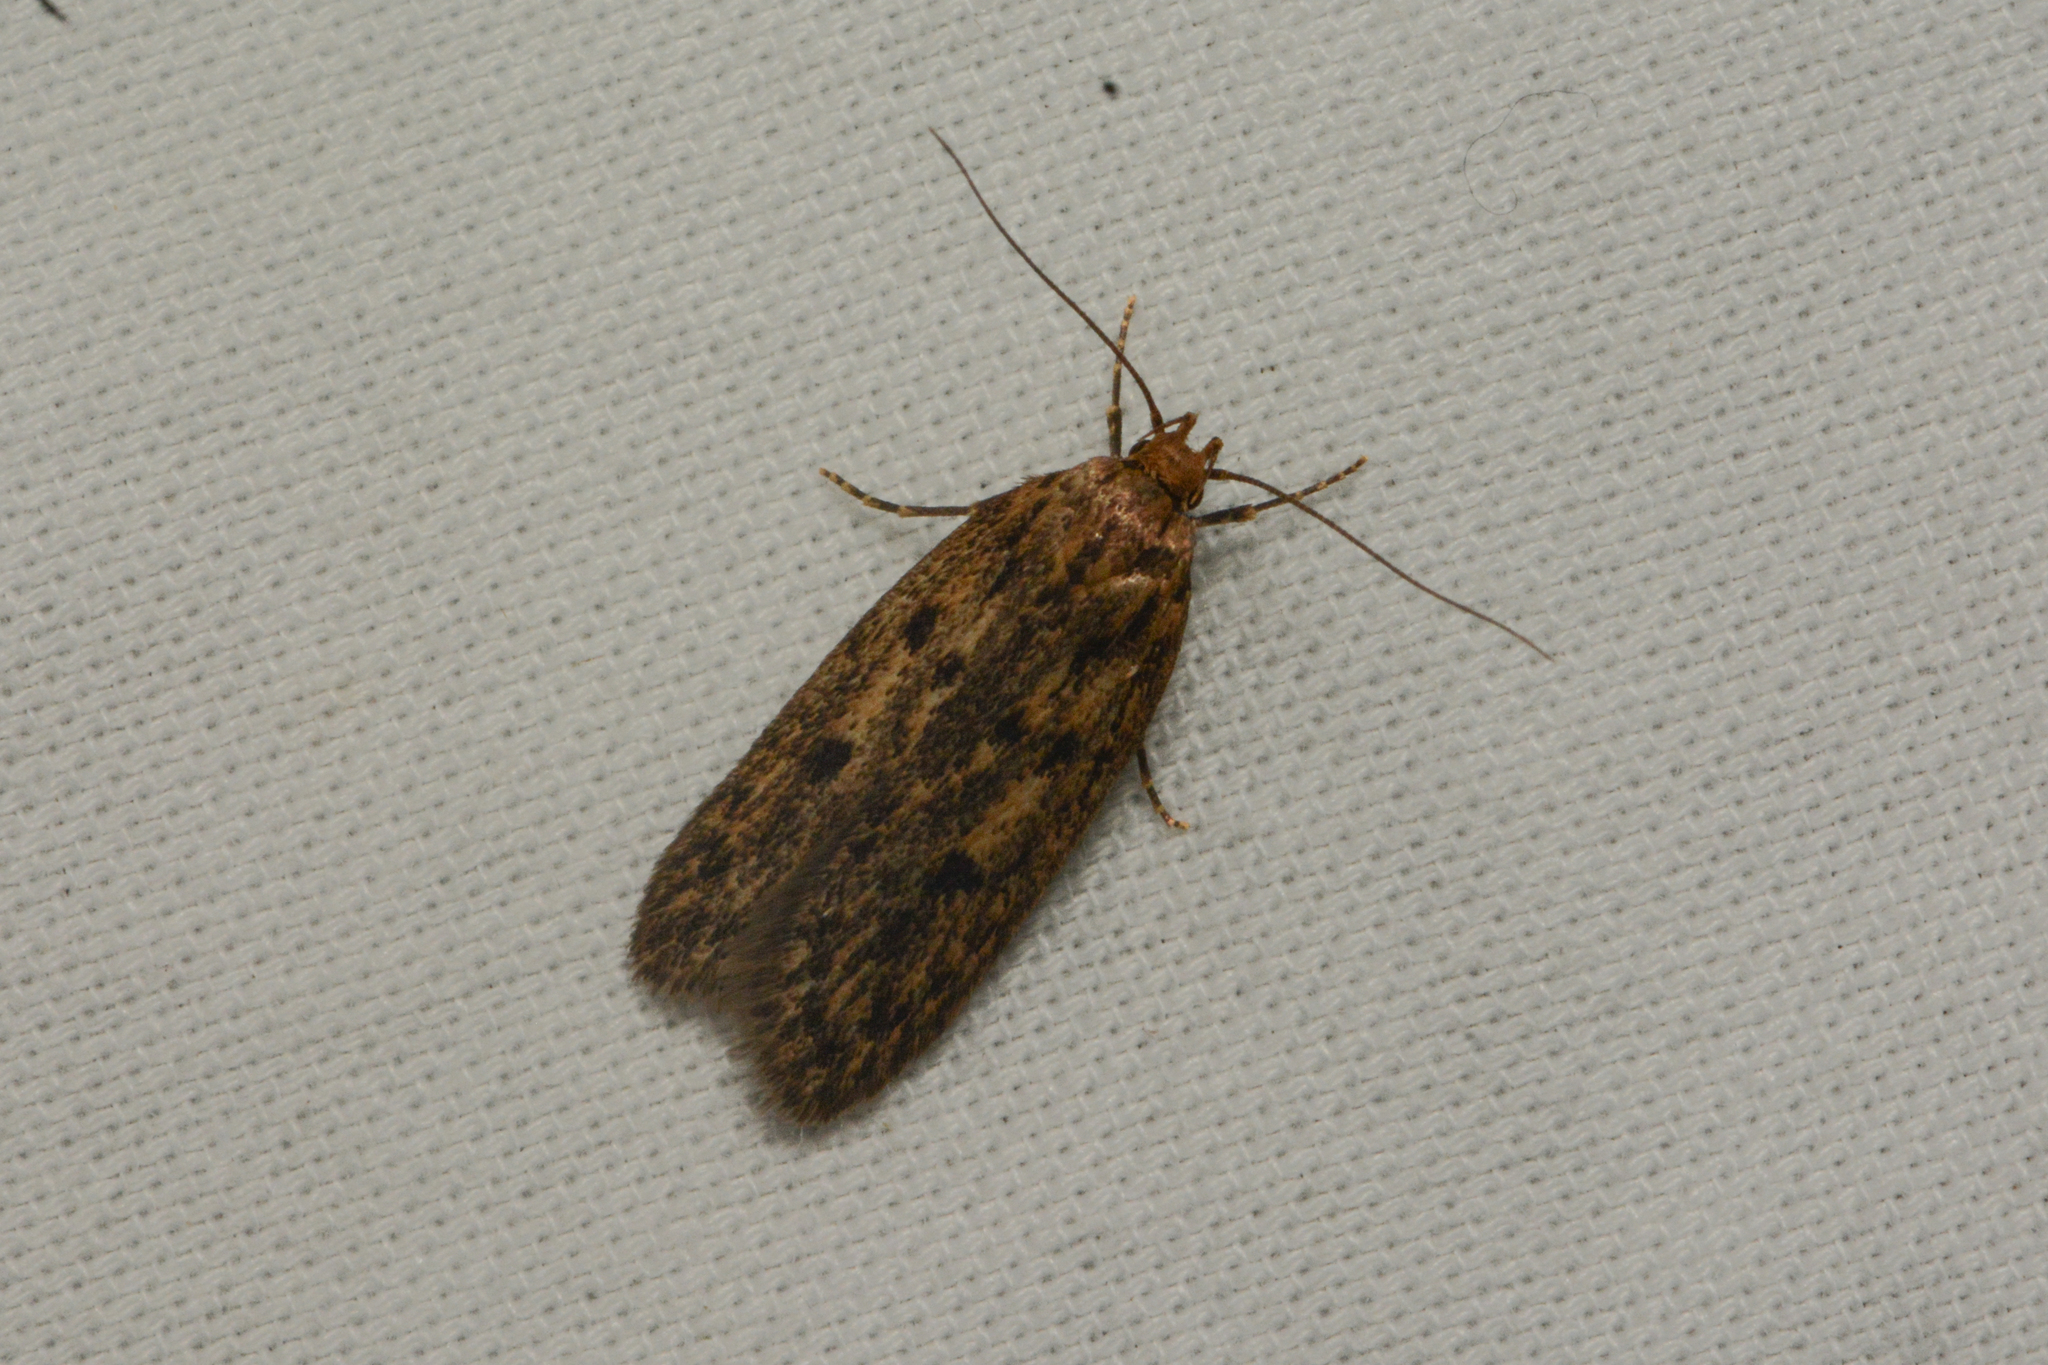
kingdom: Animalia
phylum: Arthropoda
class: Insecta
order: Lepidoptera
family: Oecophoridae
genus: Hofmannophila
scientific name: Hofmannophila pseudospretella
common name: Brown house moth
